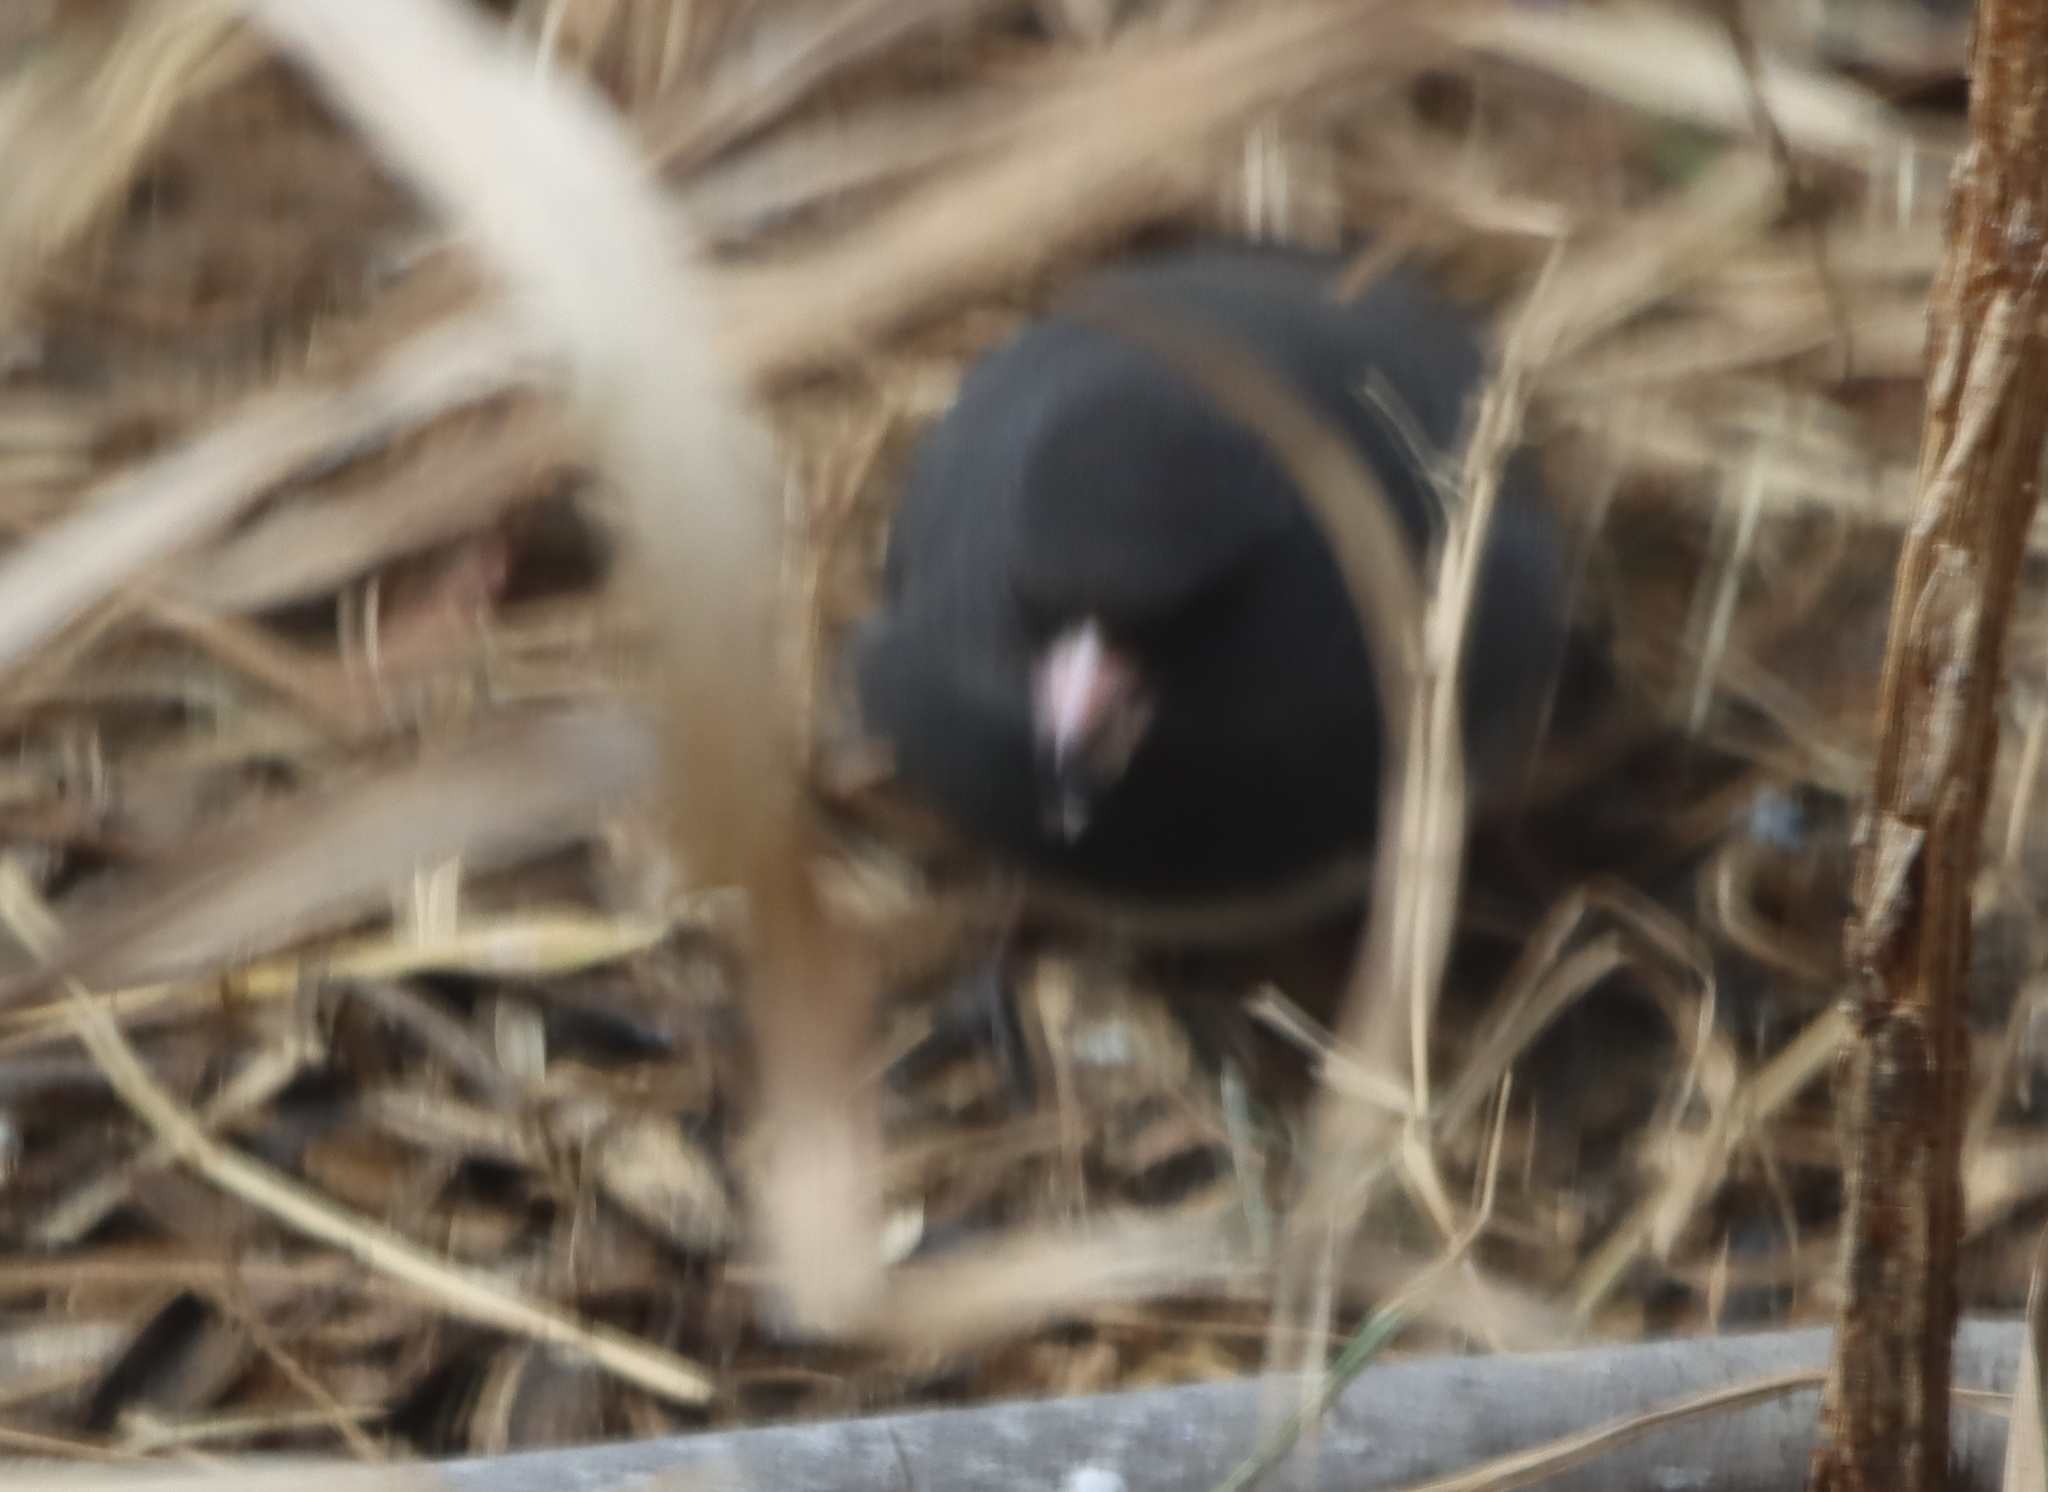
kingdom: Animalia
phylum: Chordata
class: Aves
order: Passeriformes
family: Passerellidae
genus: Junco
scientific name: Junco hyemalis
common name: Dark-eyed junco
